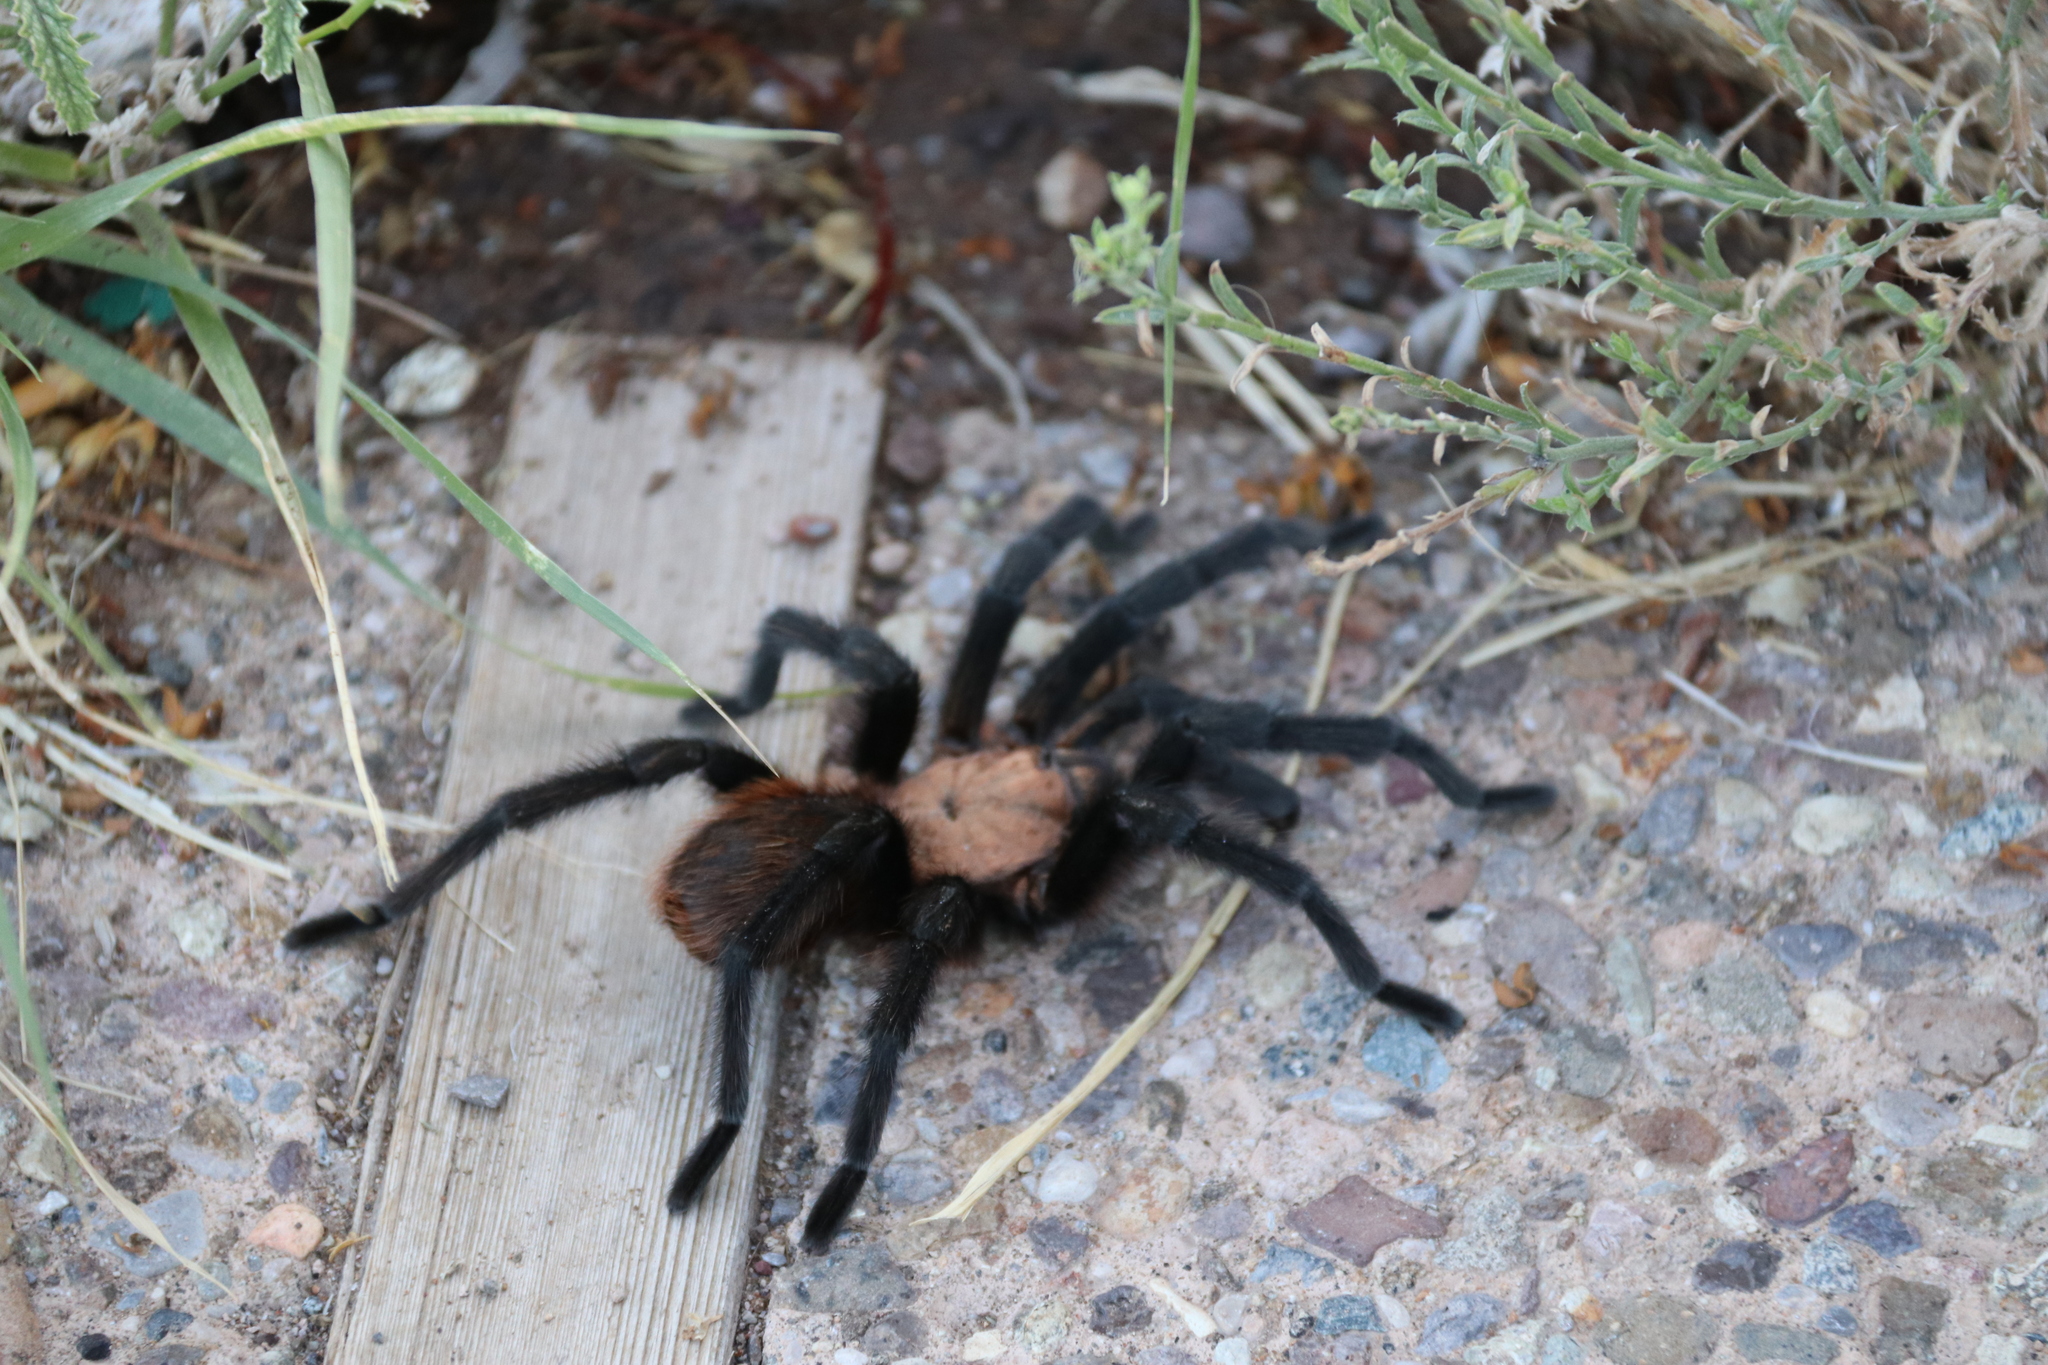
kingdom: Animalia
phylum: Arthropoda
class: Arachnida
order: Araneae
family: Theraphosidae
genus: Aphonopelma
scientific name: Aphonopelma hentzi
